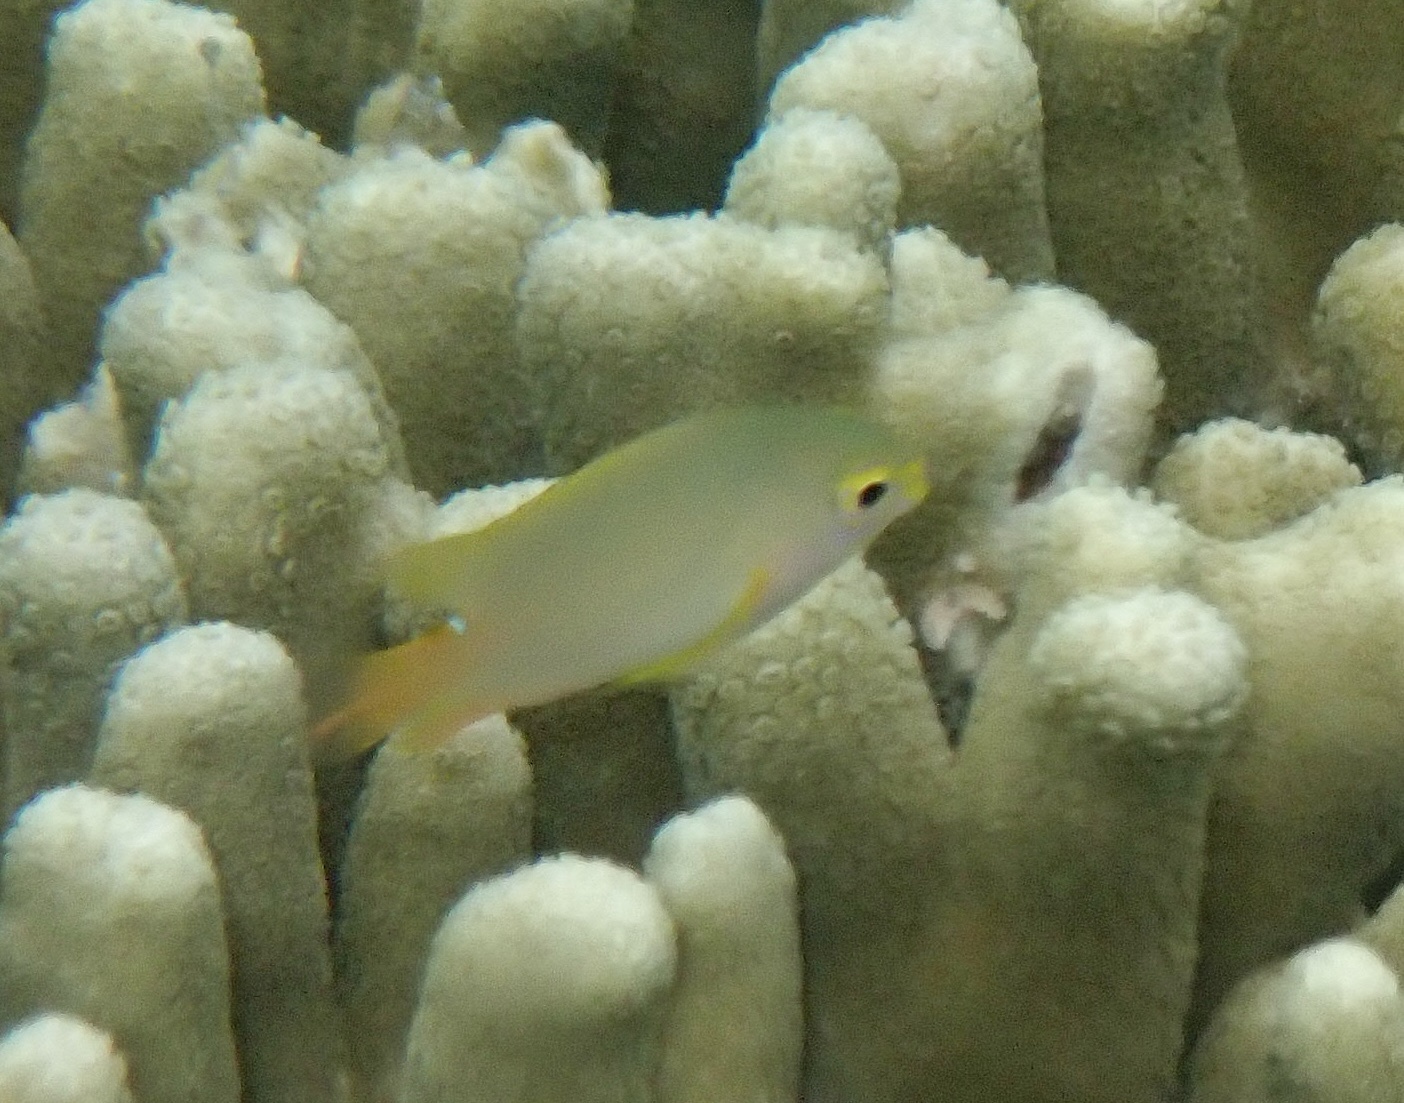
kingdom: Animalia
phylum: Chordata
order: Perciformes
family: Pomacentridae
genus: Pomacentrus
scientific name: Pomacentrus moluccensis
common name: Lemon damsel
